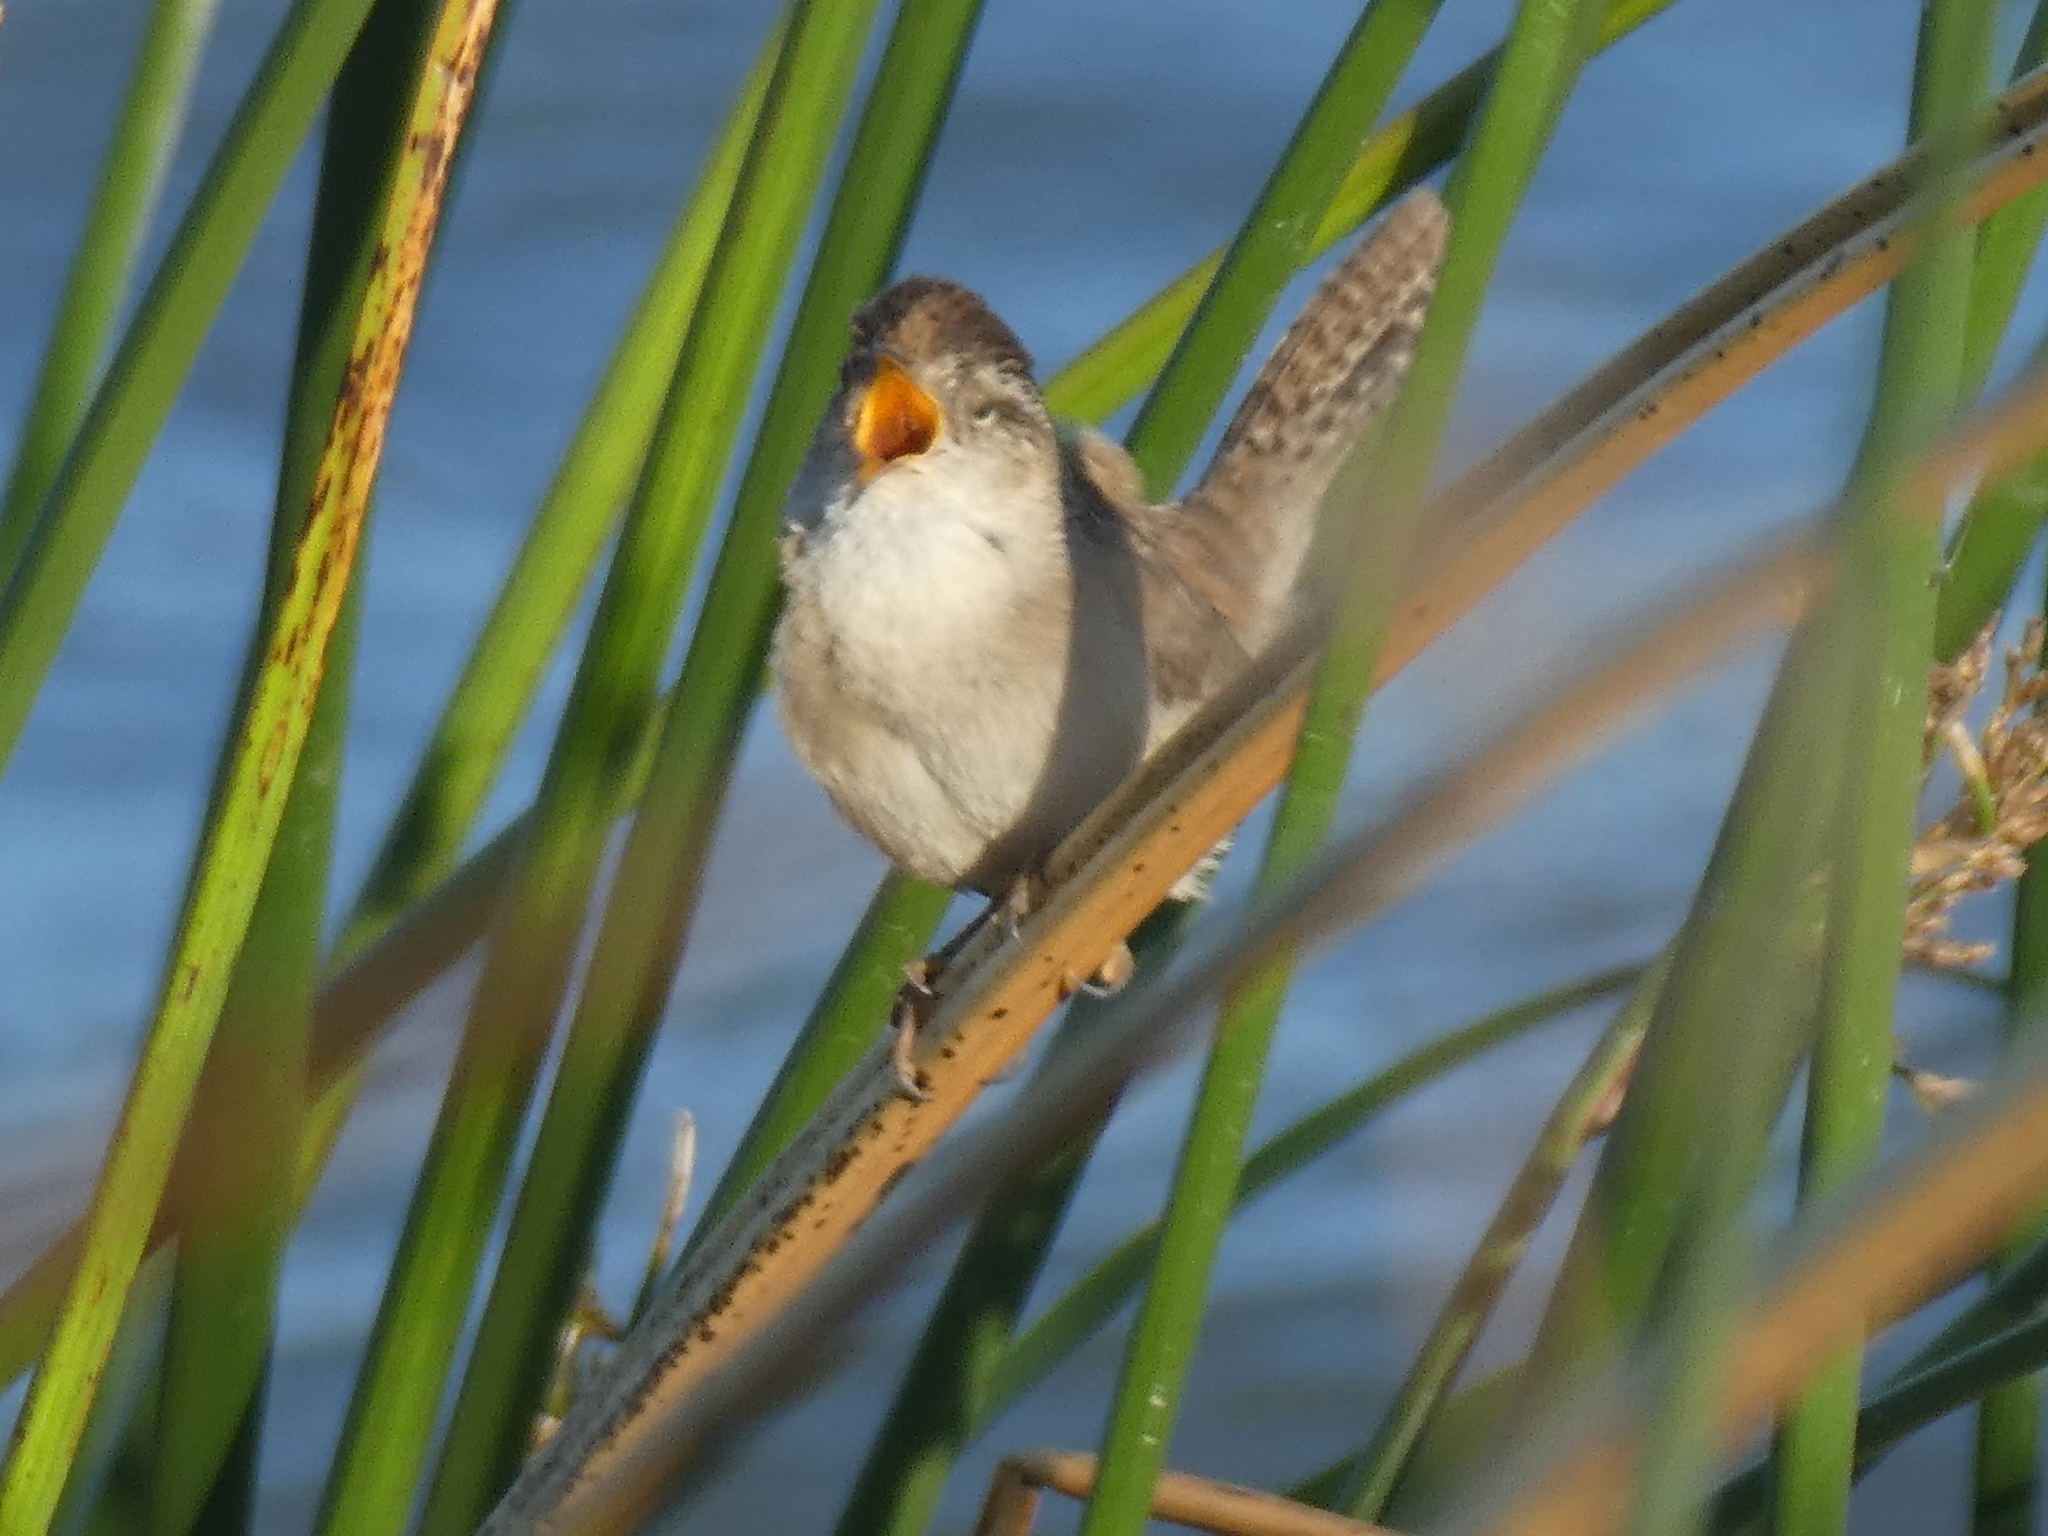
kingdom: Animalia
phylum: Chordata
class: Aves
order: Passeriformes
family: Troglodytidae
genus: Cistothorus
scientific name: Cistothorus palustris
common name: Marsh wren
